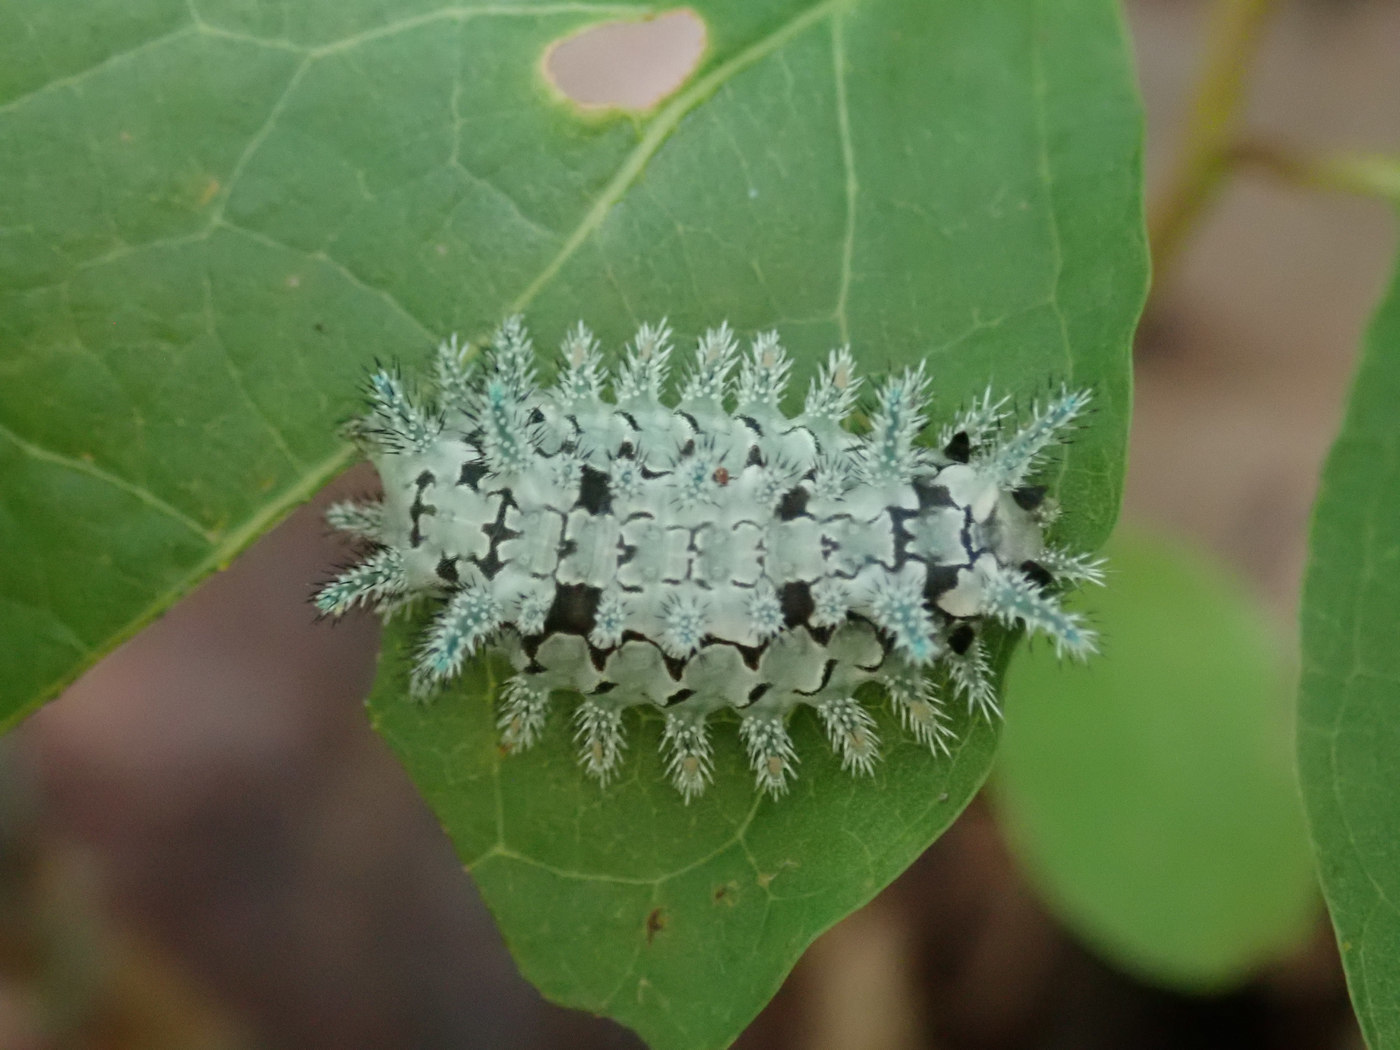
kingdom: Animalia
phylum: Arthropoda
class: Insecta
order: Lepidoptera
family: Limacodidae
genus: Euclea
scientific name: Euclea delphinii
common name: Spiny oak-slug moth
